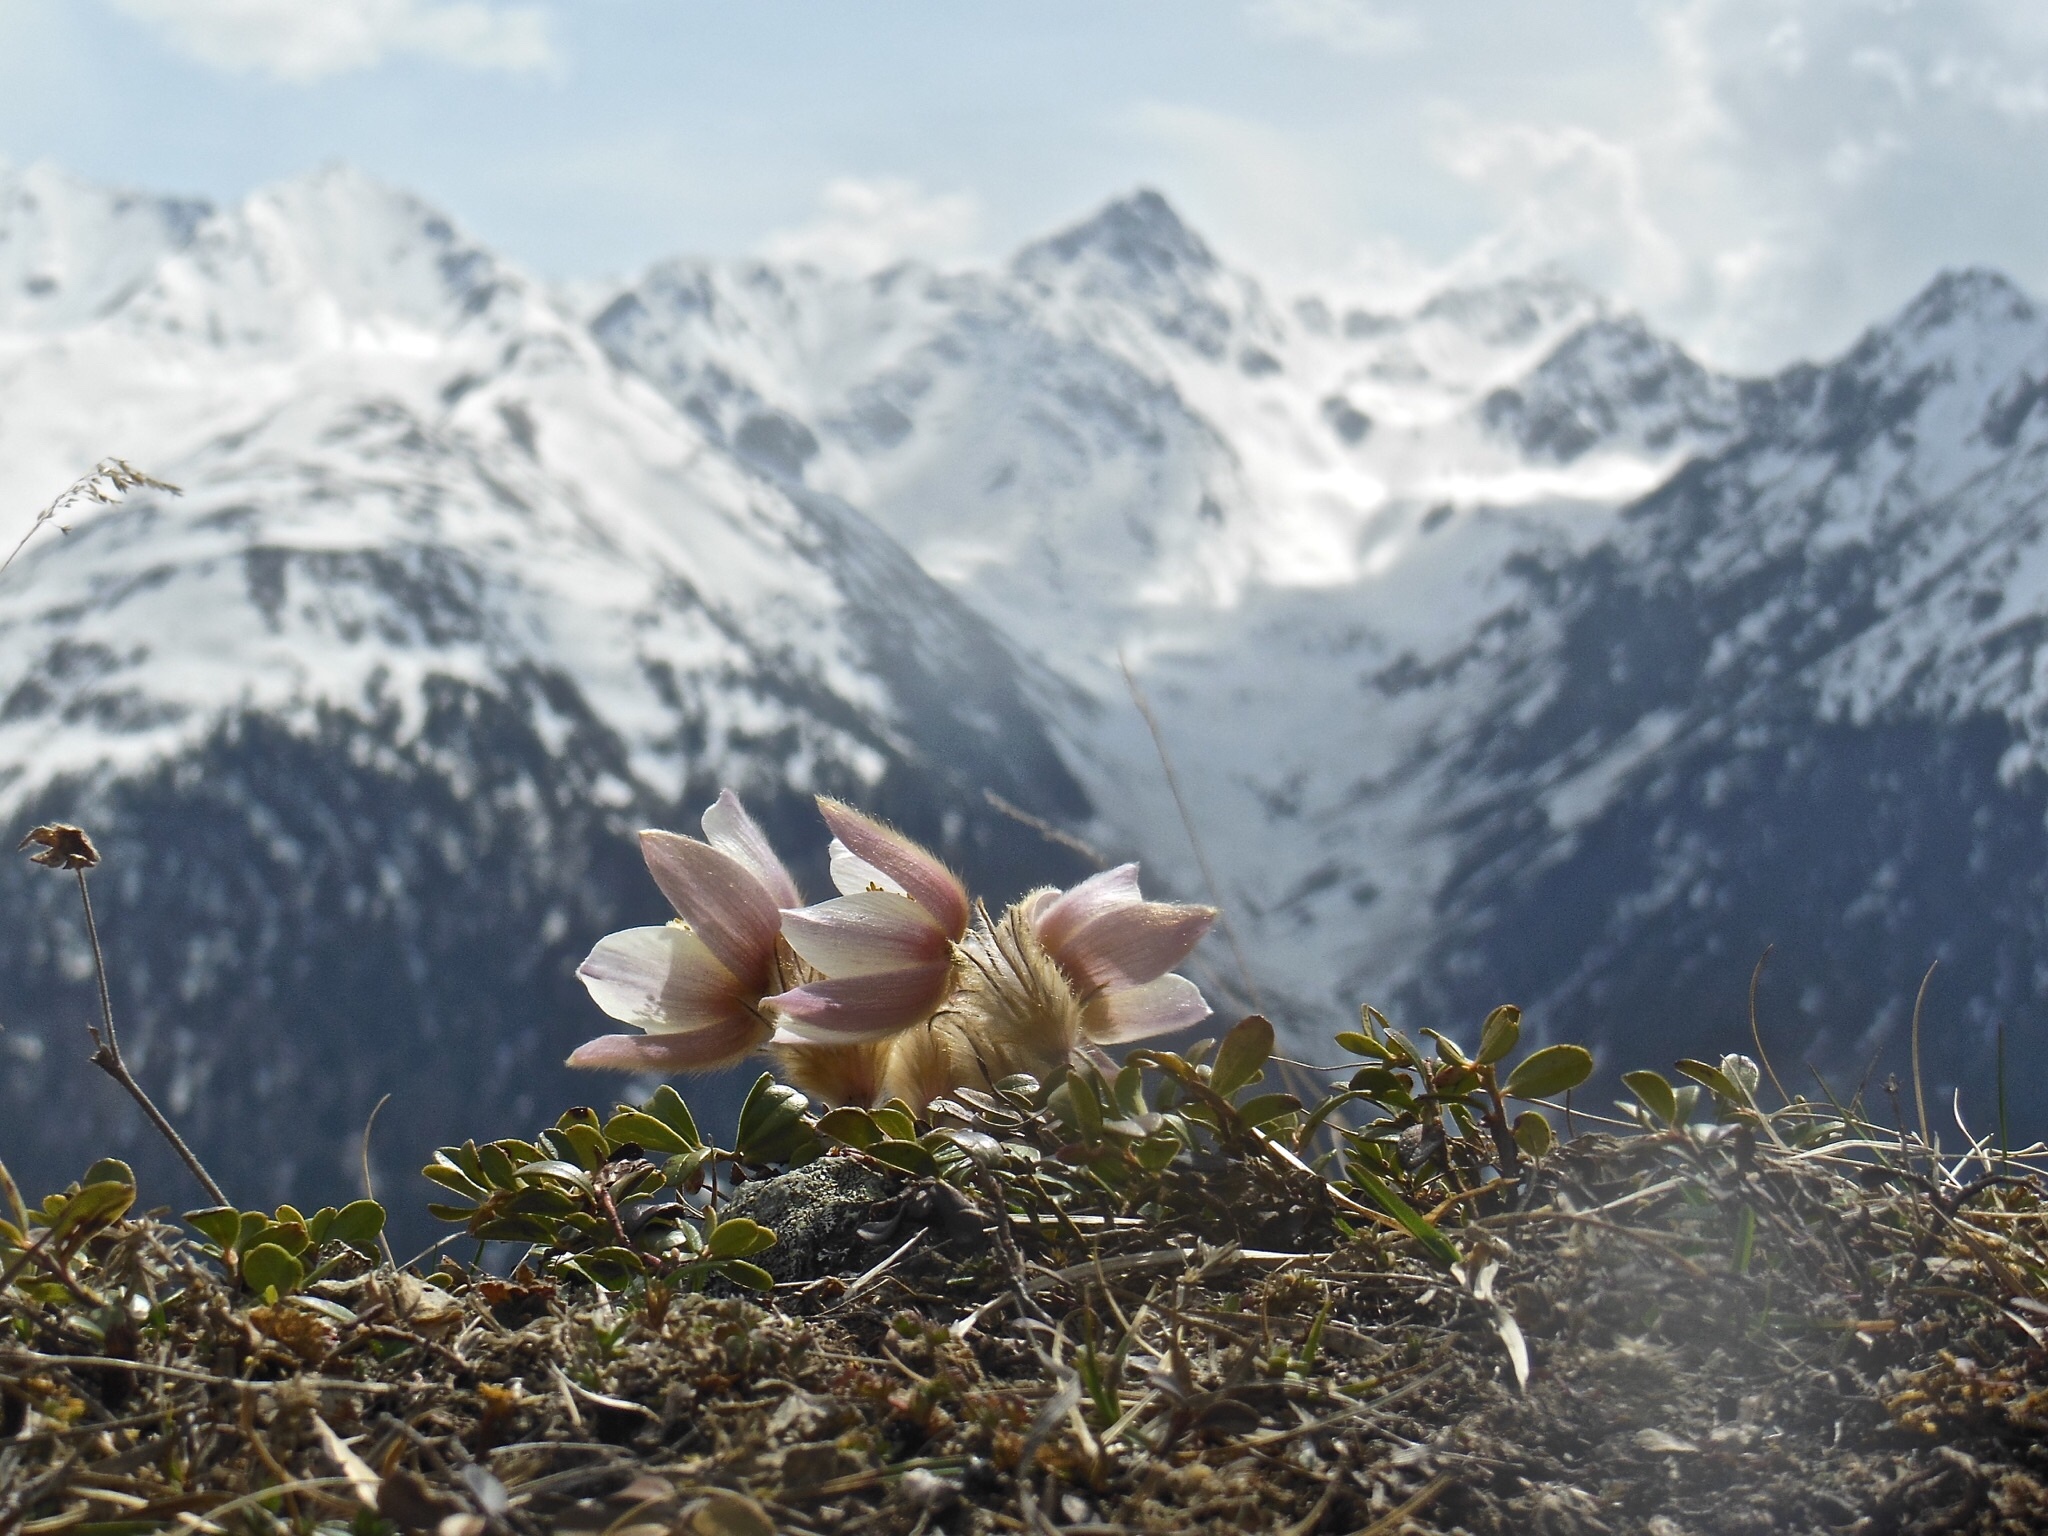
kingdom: Plantae
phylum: Tracheophyta
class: Magnoliopsida
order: Ranunculales
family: Ranunculaceae
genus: Pulsatilla
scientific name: Pulsatilla vernalis
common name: Spring pasque flower
